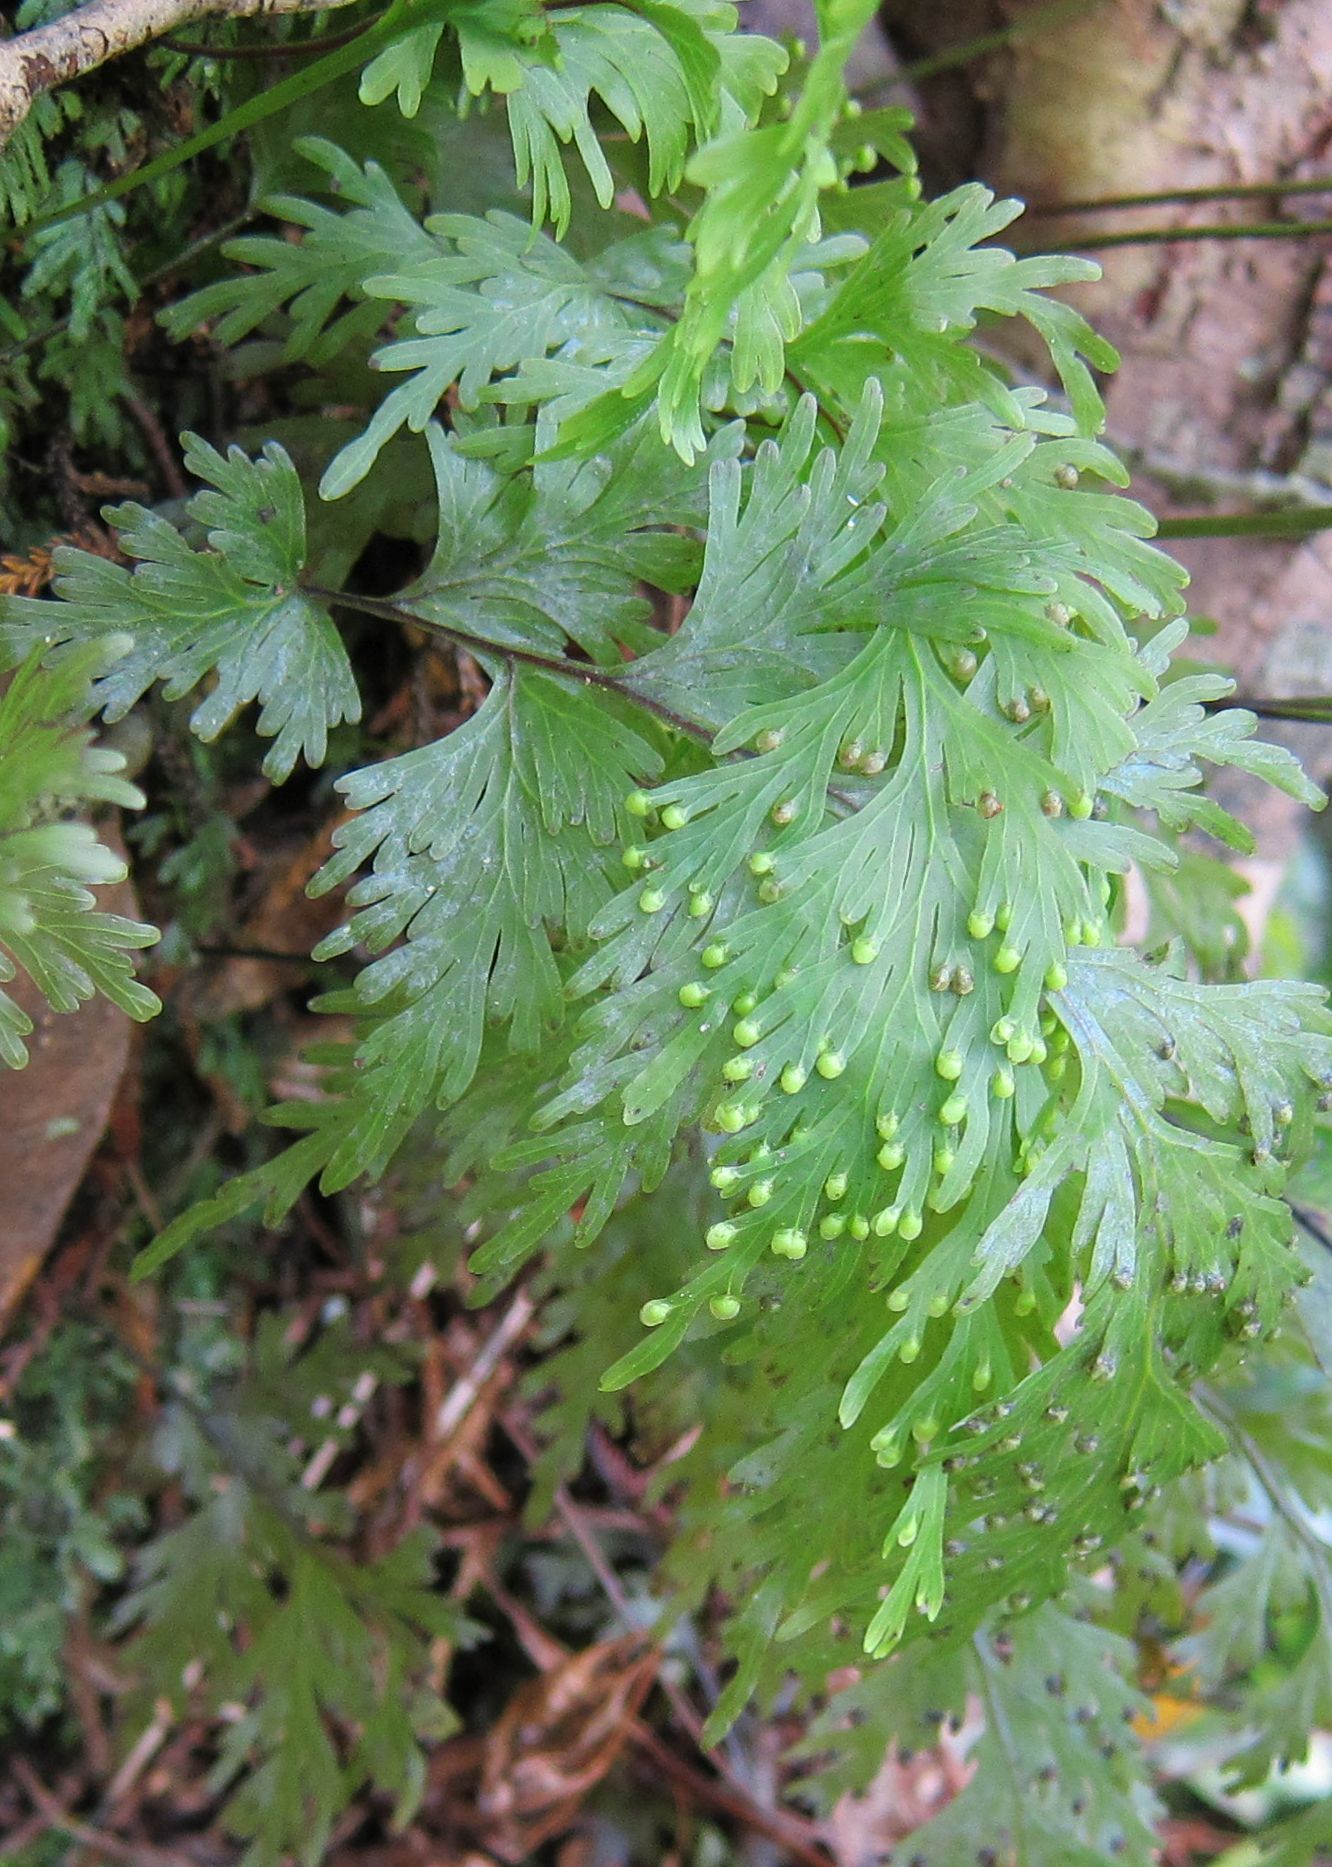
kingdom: Plantae
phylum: Tracheophyta
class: Polypodiopsida
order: Hymenophyllales
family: Hymenophyllaceae
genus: Hymenophyllum
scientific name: Hymenophyllum dilatatum
